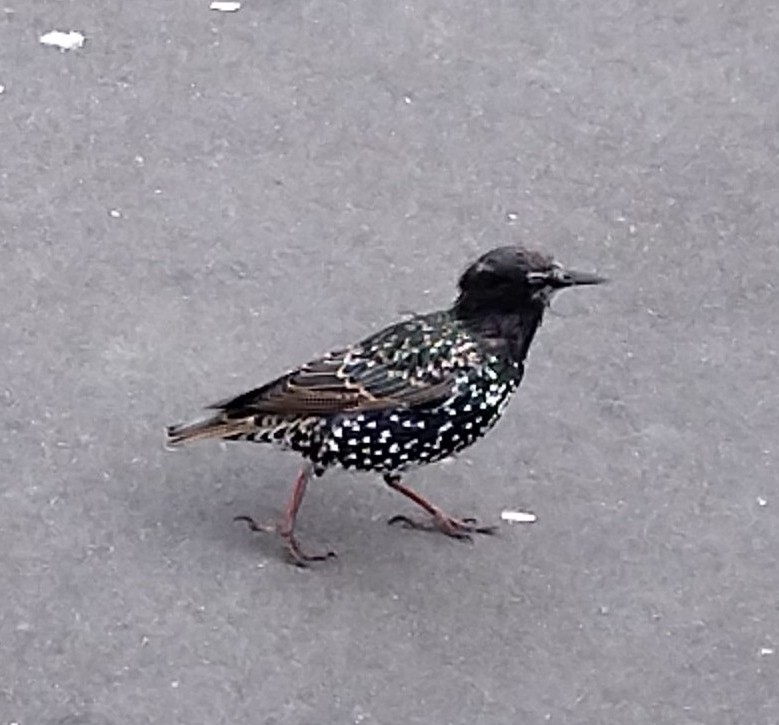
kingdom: Animalia
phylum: Chordata
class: Aves
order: Passeriformes
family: Sturnidae
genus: Sturnus
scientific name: Sturnus vulgaris
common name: Common starling
